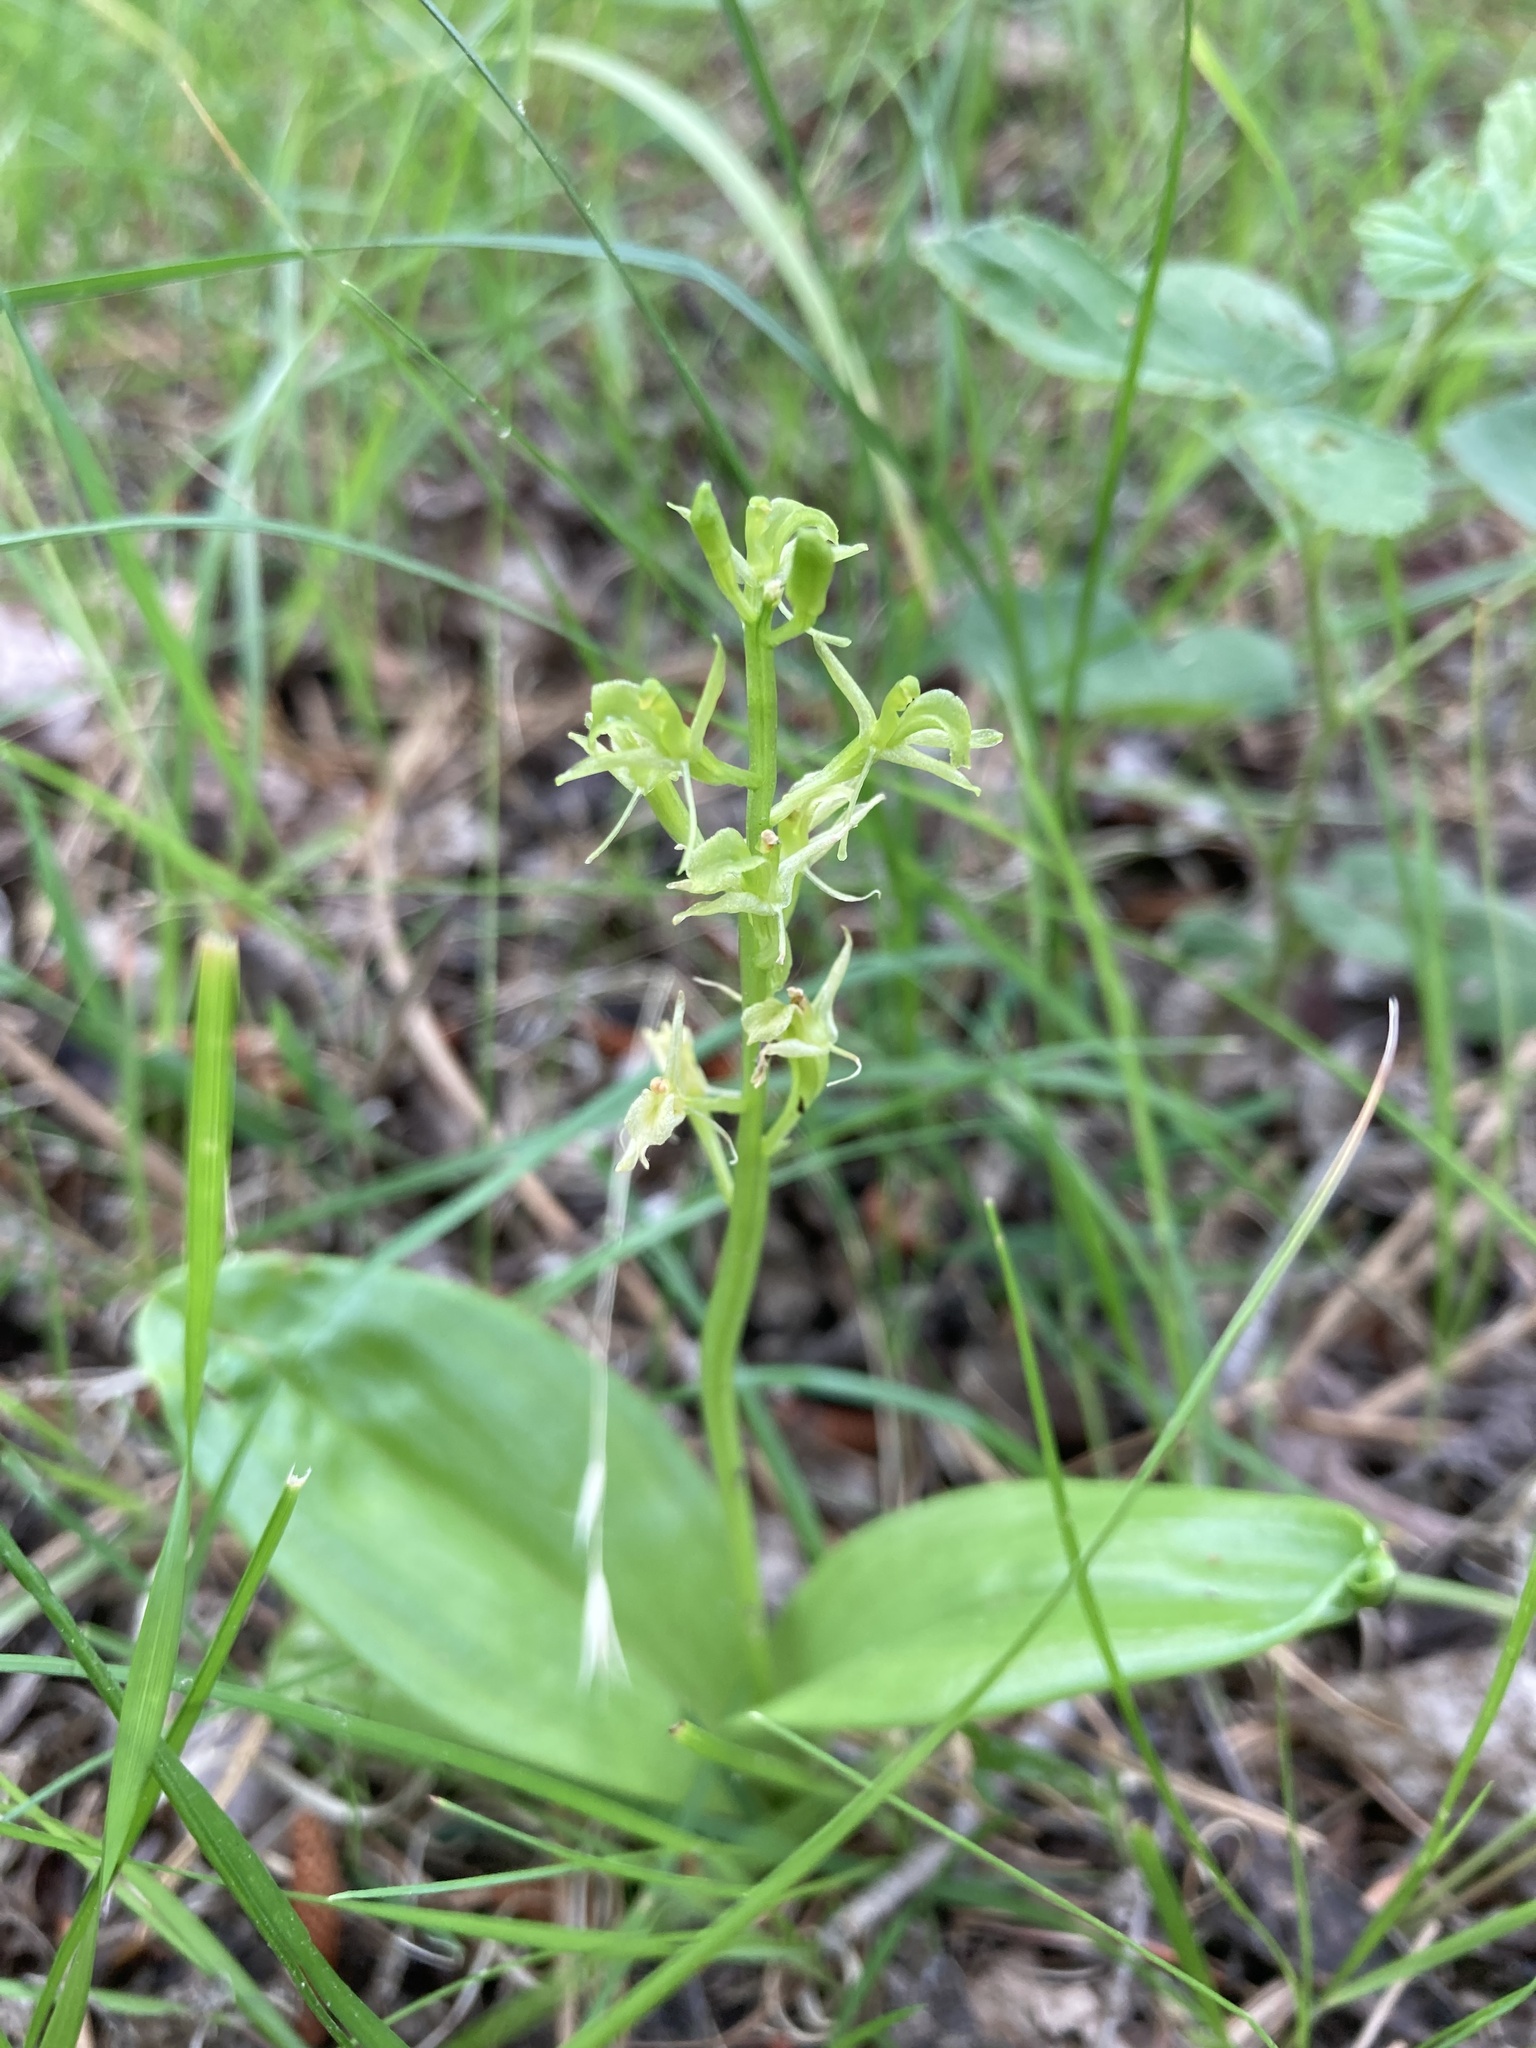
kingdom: Animalia
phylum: Arthropoda
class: Insecta
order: Coleoptera
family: Curculionidae
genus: Liparis
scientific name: Liparis loeselii
